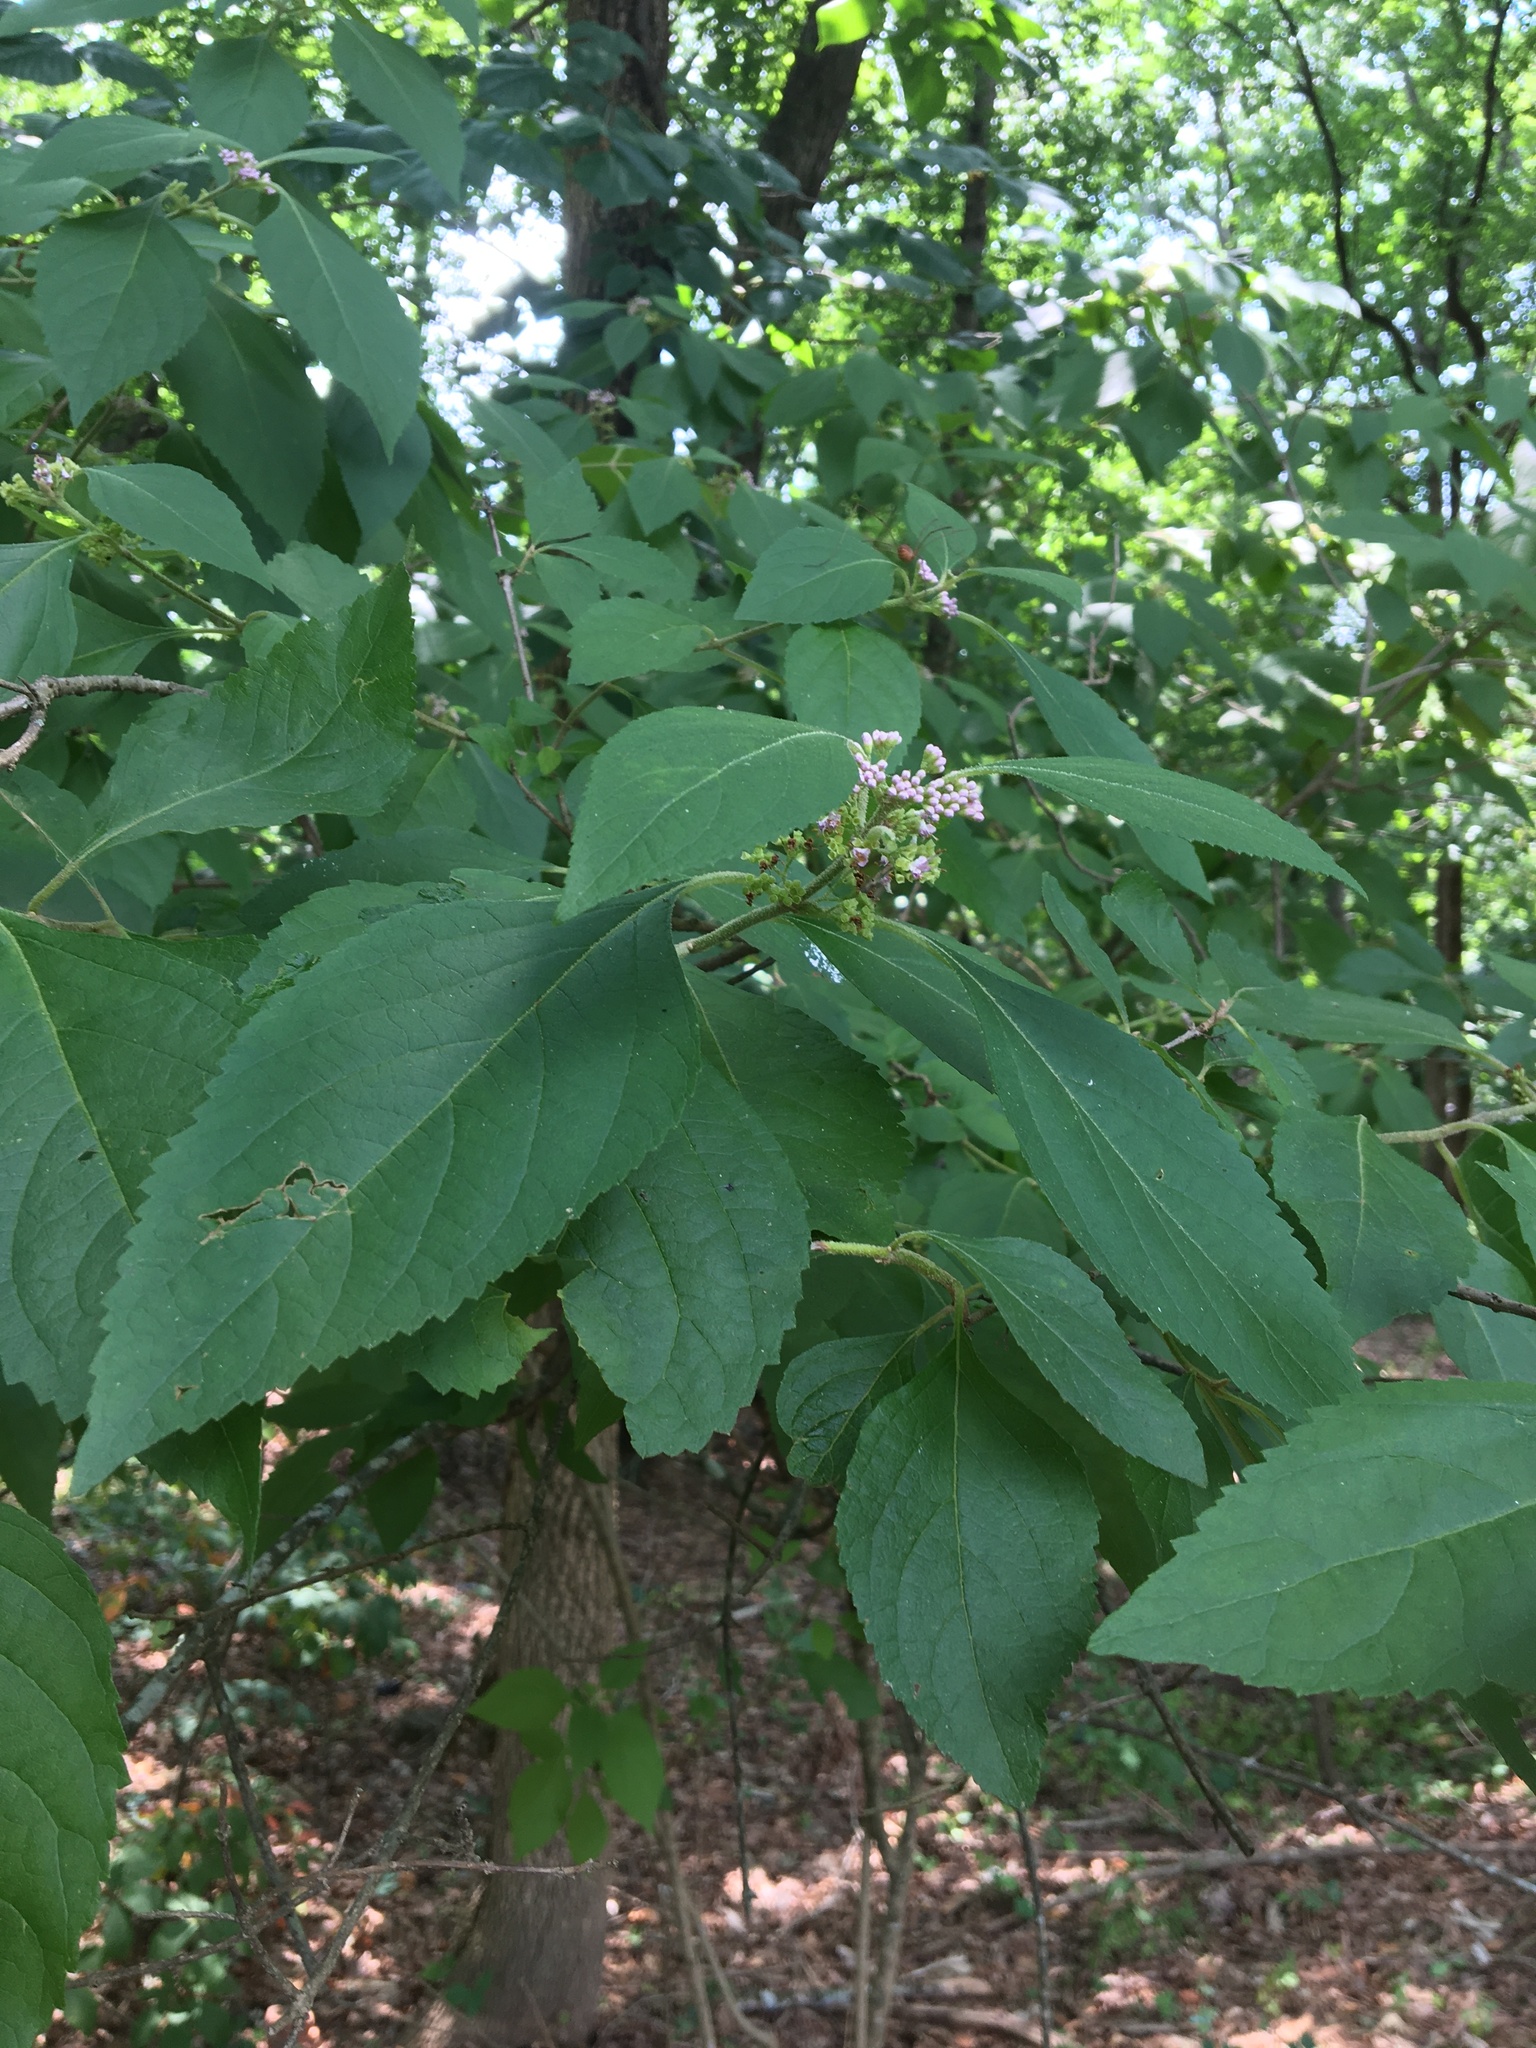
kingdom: Plantae
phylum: Tracheophyta
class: Magnoliopsida
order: Lamiales
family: Lamiaceae
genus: Callicarpa
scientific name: Callicarpa americana
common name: American beautyberry
